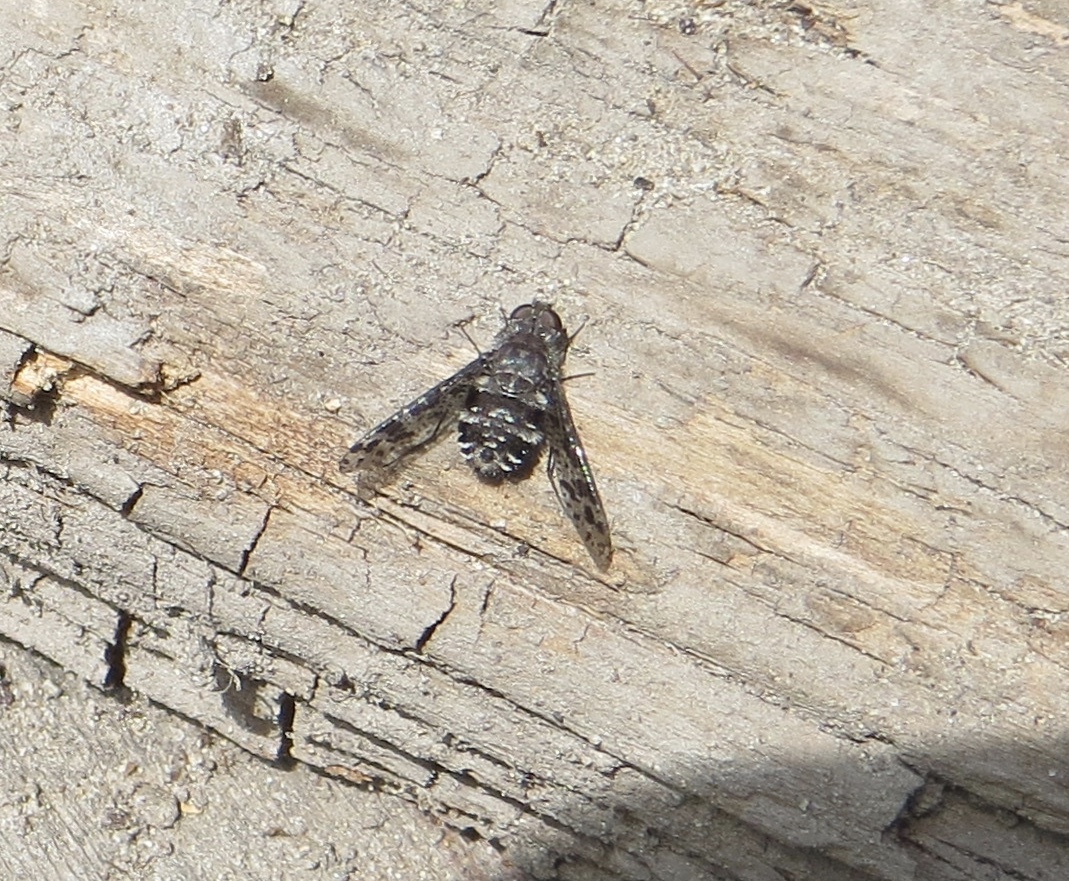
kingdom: Animalia
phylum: Arthropoda
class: Insecta
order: Diptera
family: Bombyliidae
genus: Anthrax
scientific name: Anthrax
